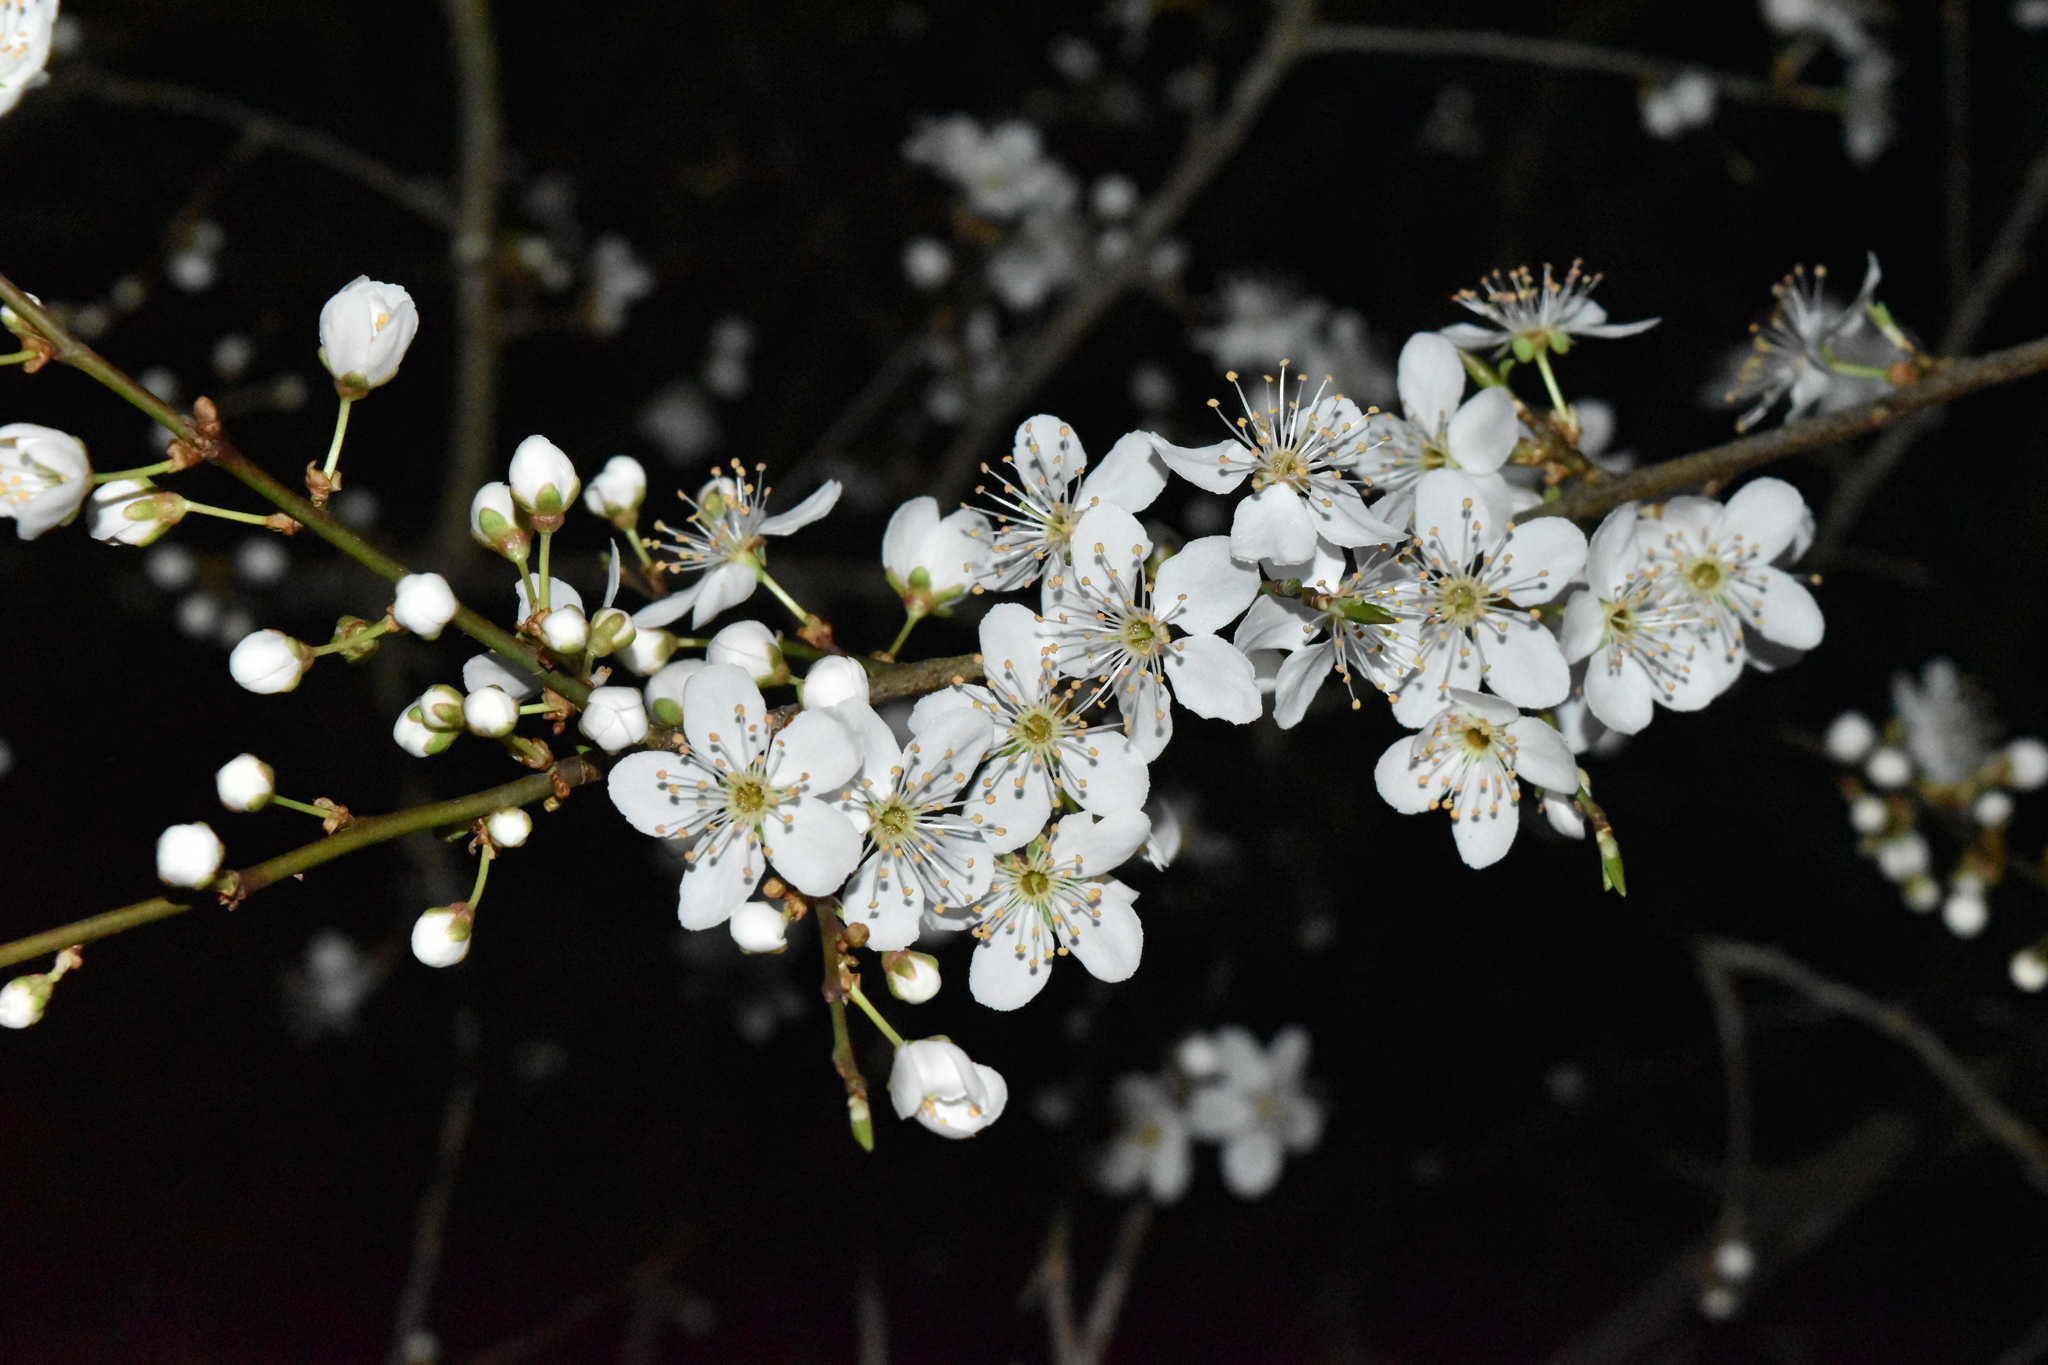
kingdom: Plantae
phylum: Tracheophyta
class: Magnoliopsida
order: Rosales
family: Rosaceae
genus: Prunus
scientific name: Prunus cerasifera
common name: Cherry plum
